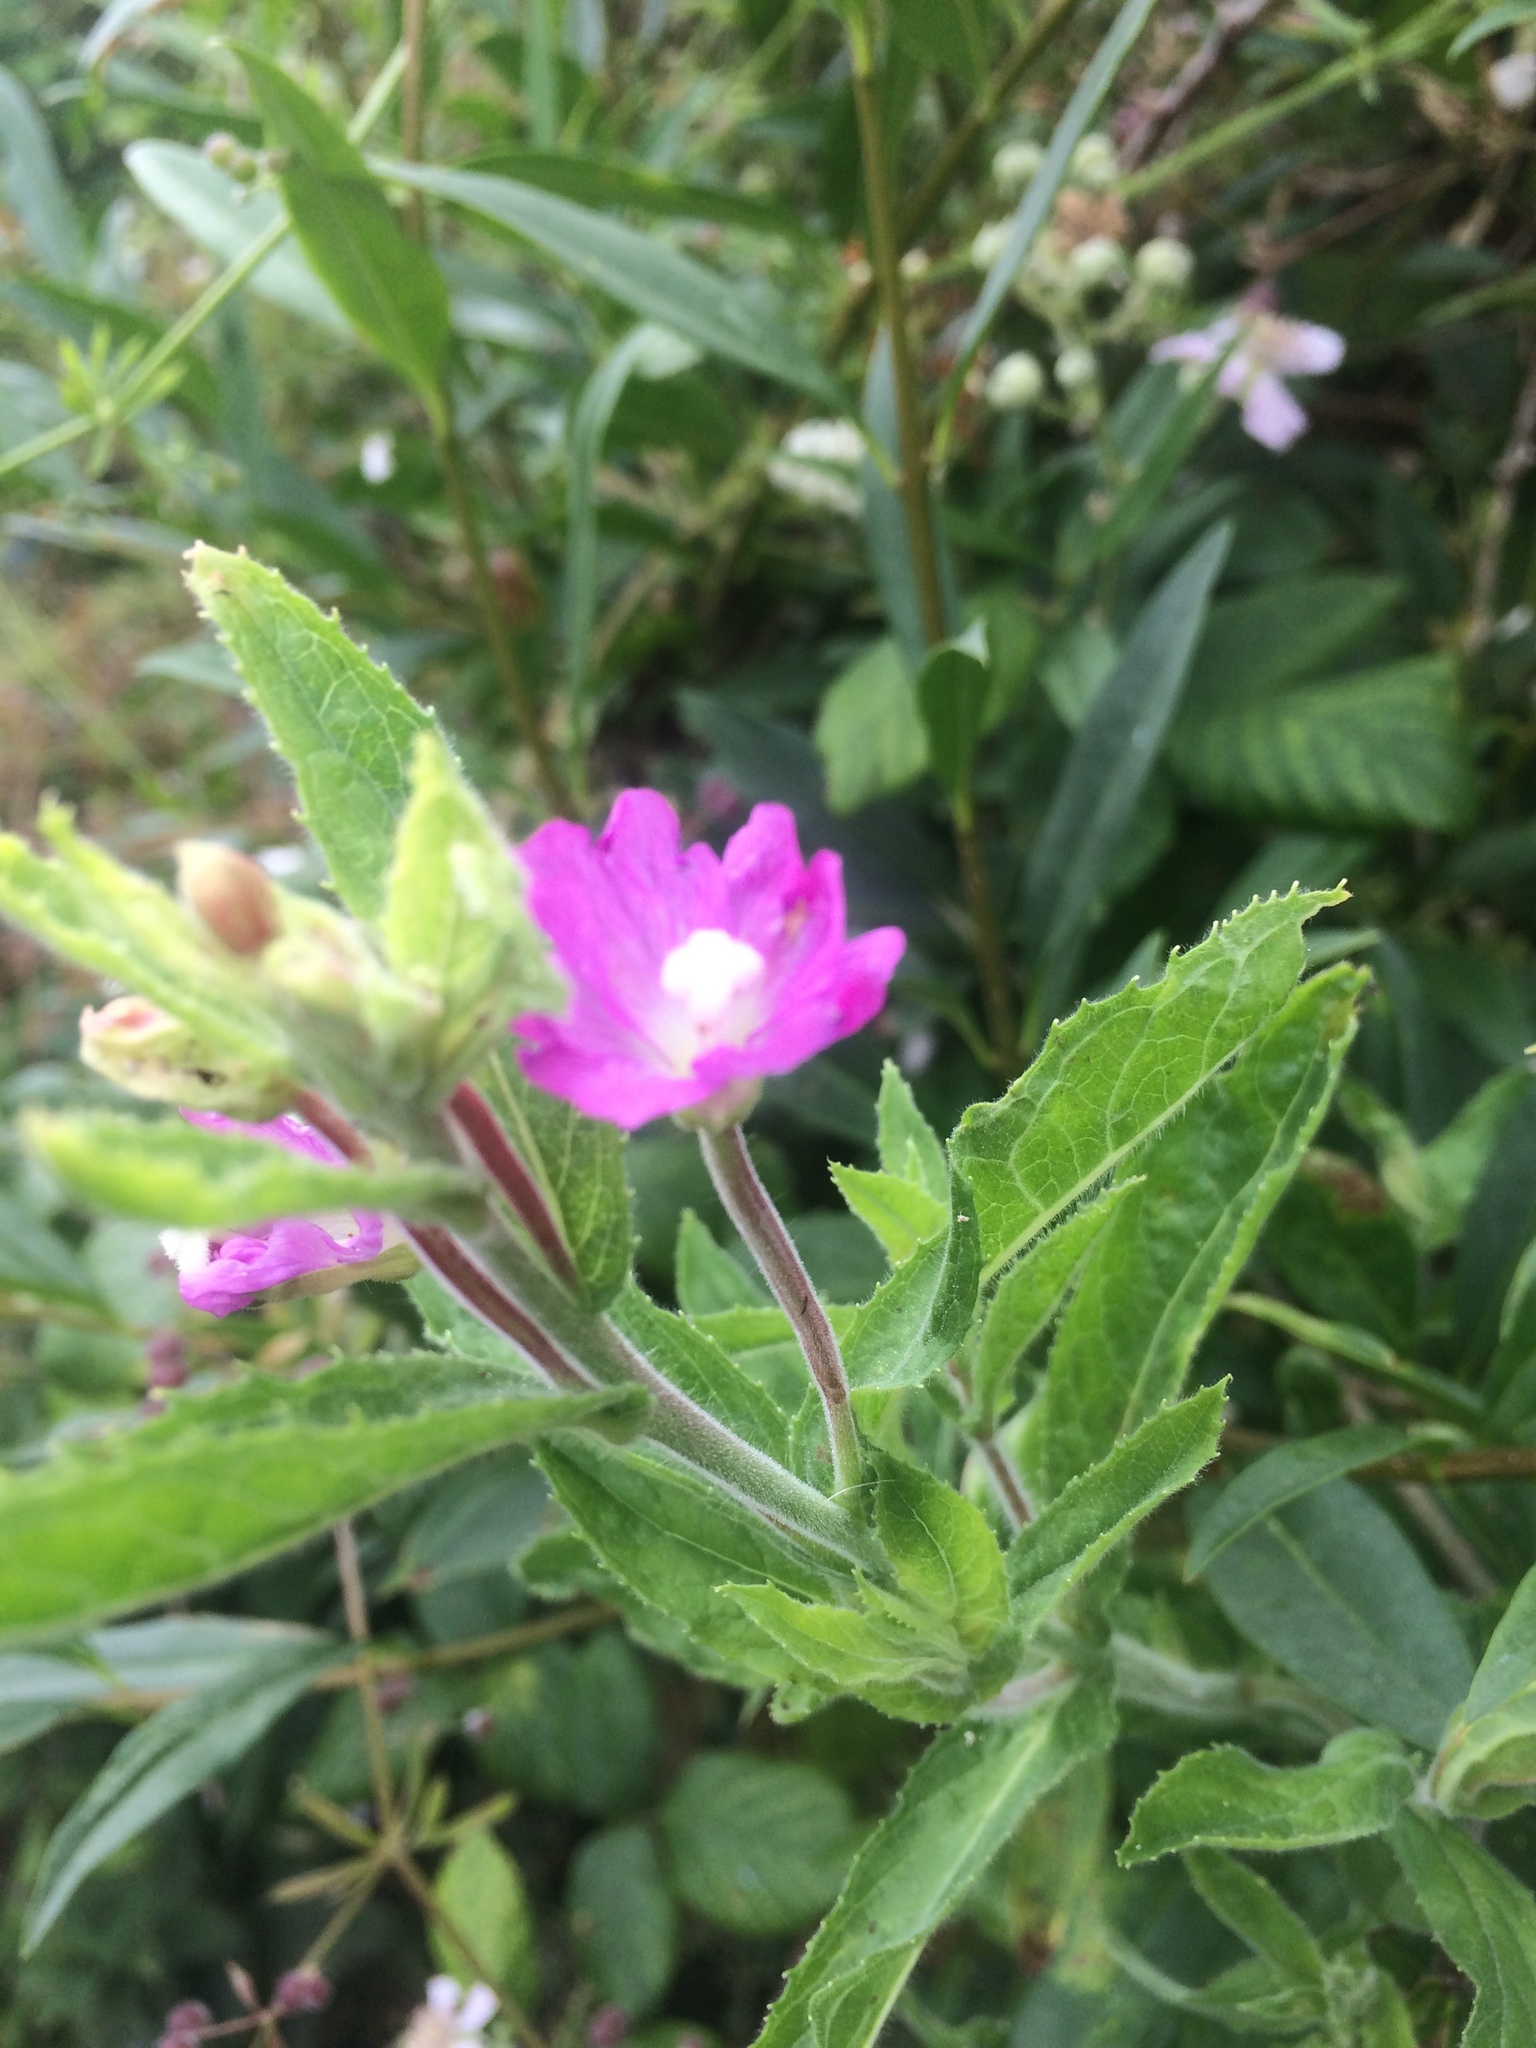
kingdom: Plantae
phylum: Tracheophyta
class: Magnoliopsida
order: Myrtales
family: Onagraceae
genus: Epilobium
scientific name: Epilobium hirsutum
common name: Great willowherb
